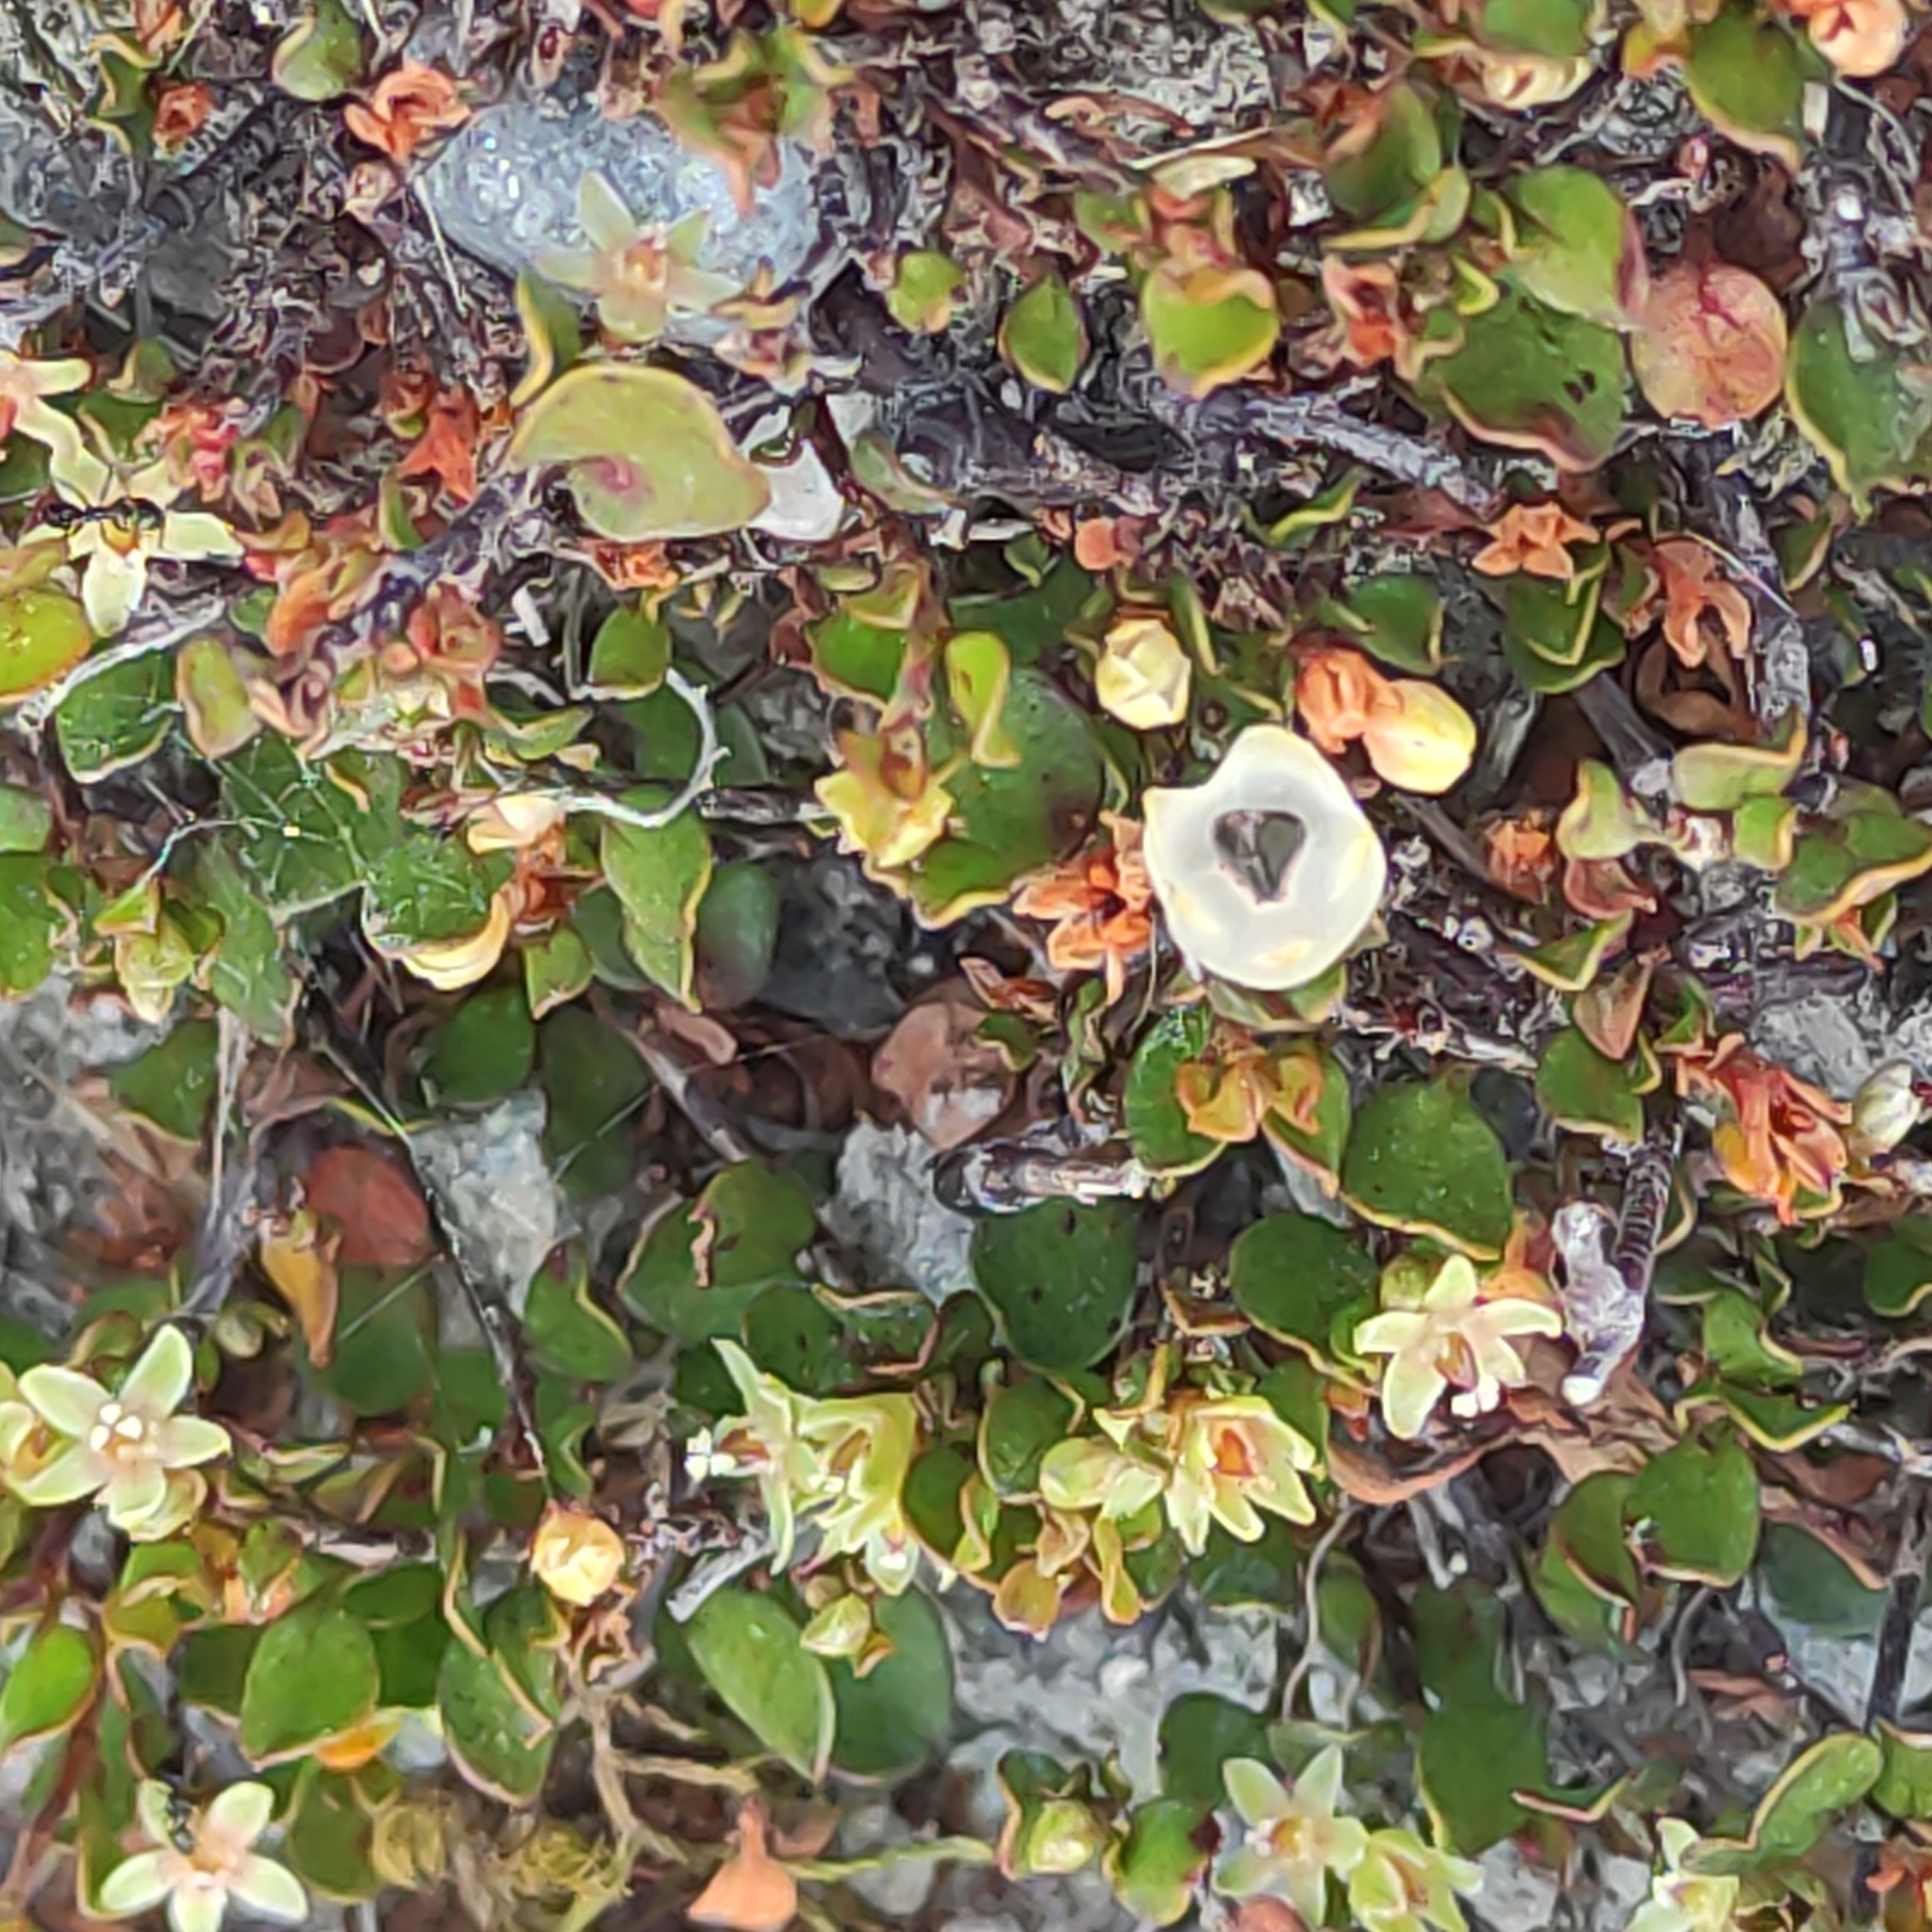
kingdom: Plantae
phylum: Tracheophyta
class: Magnoliopsida
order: Caryophyllales
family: Polygonaceae
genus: Muehlenbeckia
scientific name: Muehlenbeckia axillaris
